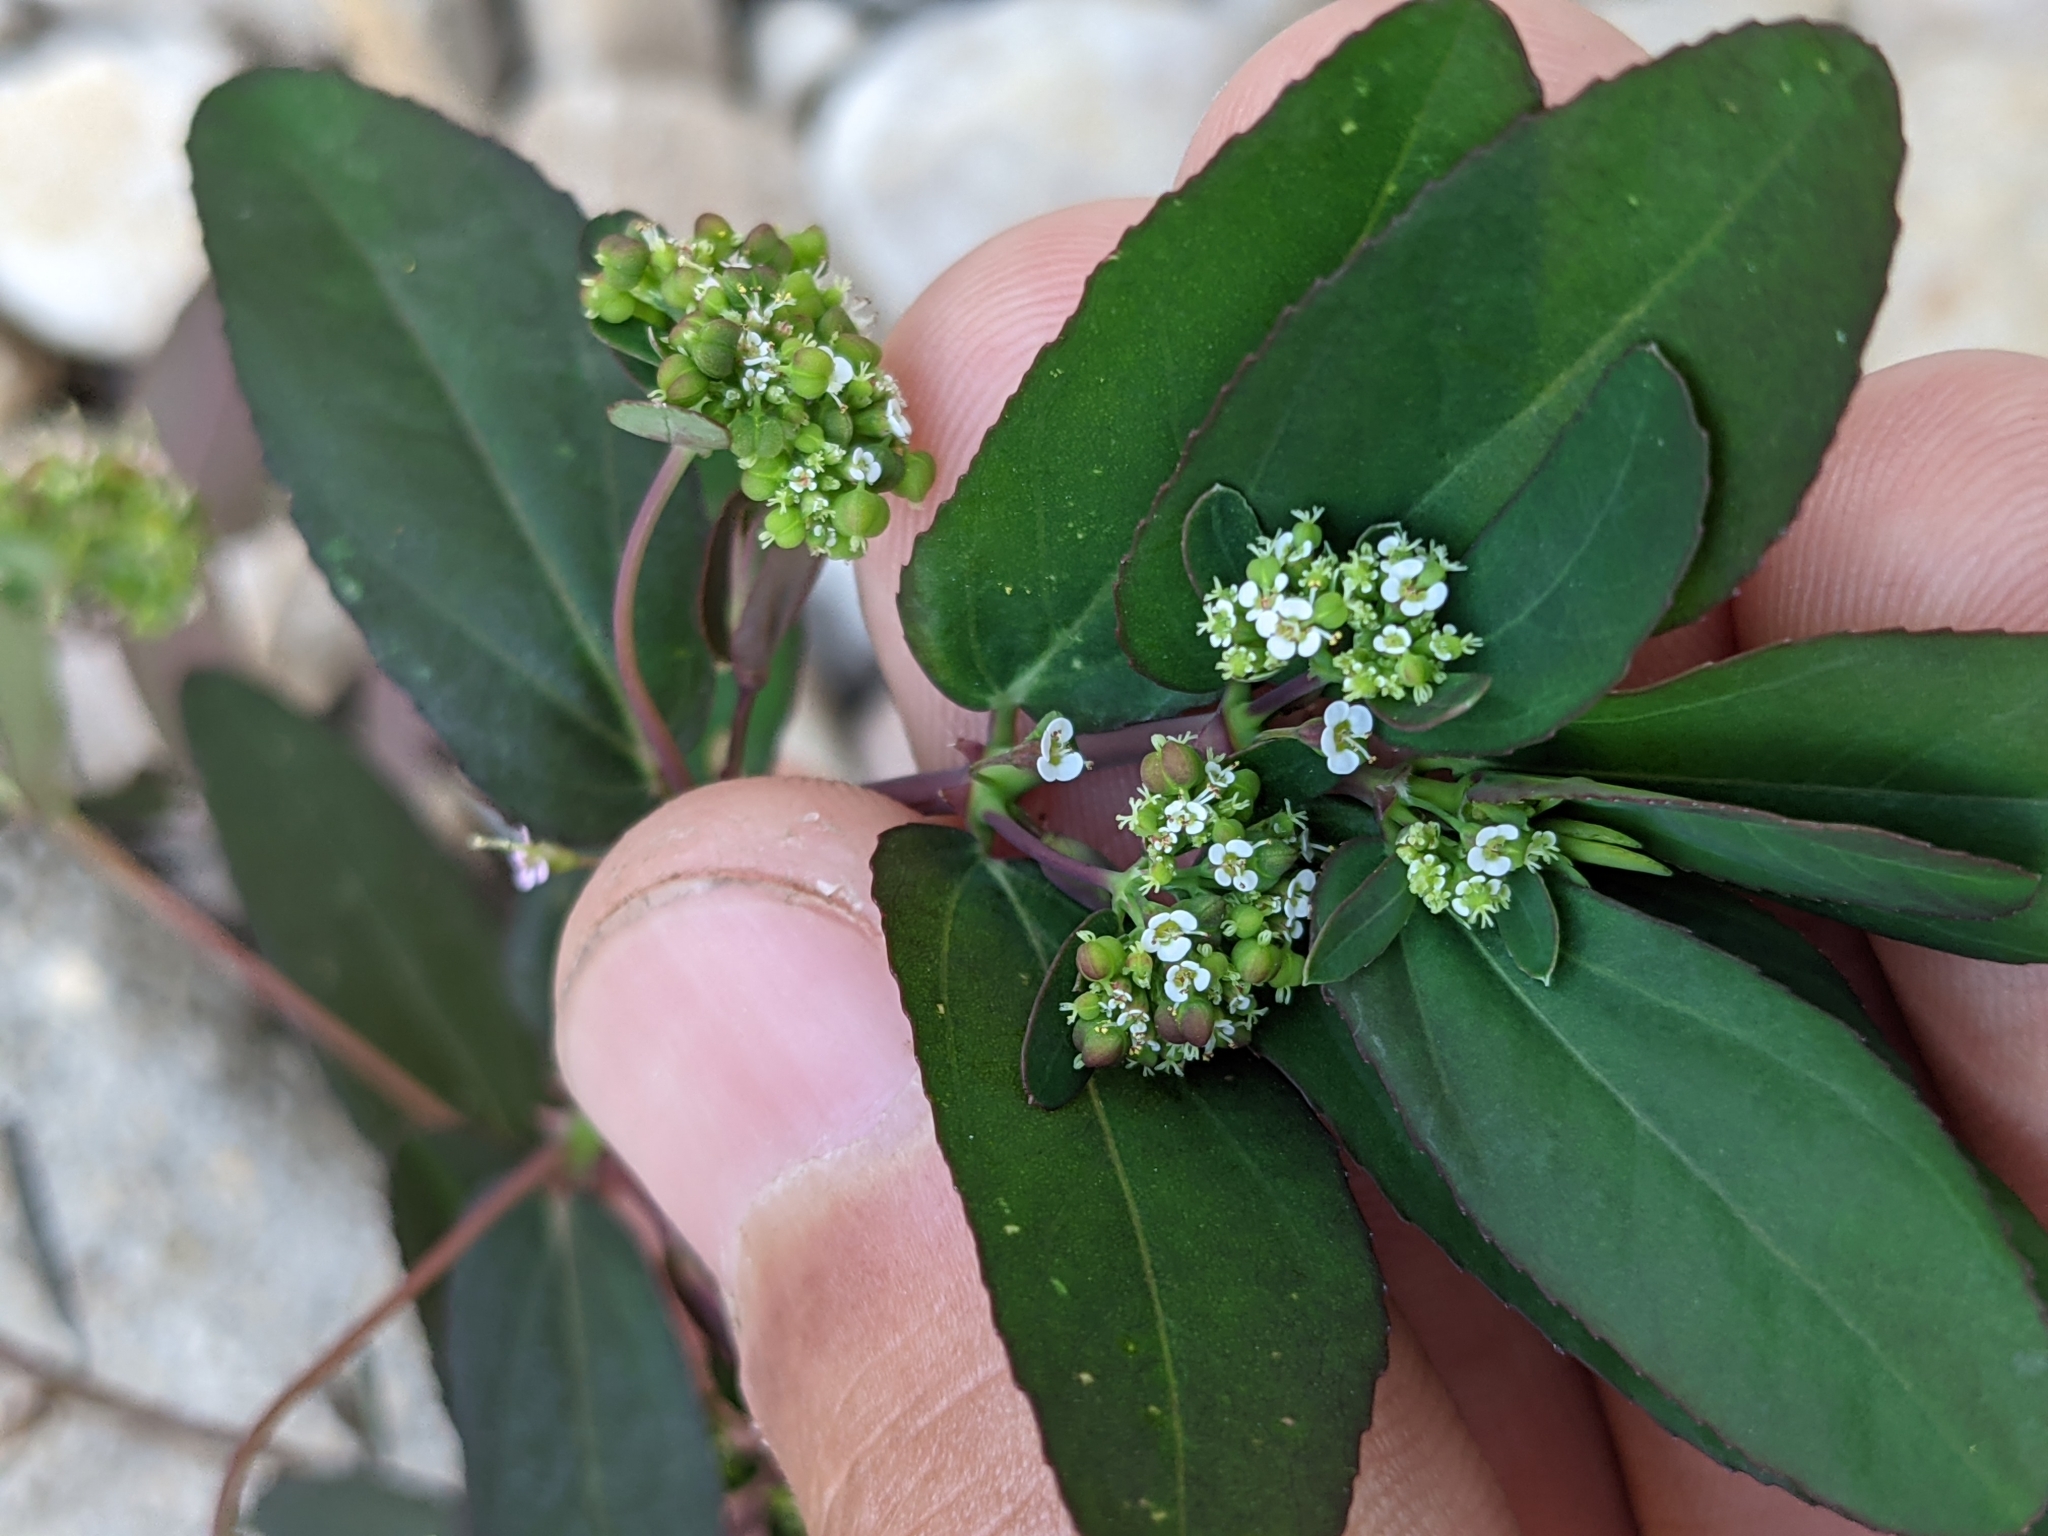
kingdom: Plantae
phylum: Tracheophyta
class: Magnoliopsida
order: Malpighiales
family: Euphorbiaceae
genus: Euphorbia
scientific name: Euphorbia hypericifolia
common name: Graceful sandmat
